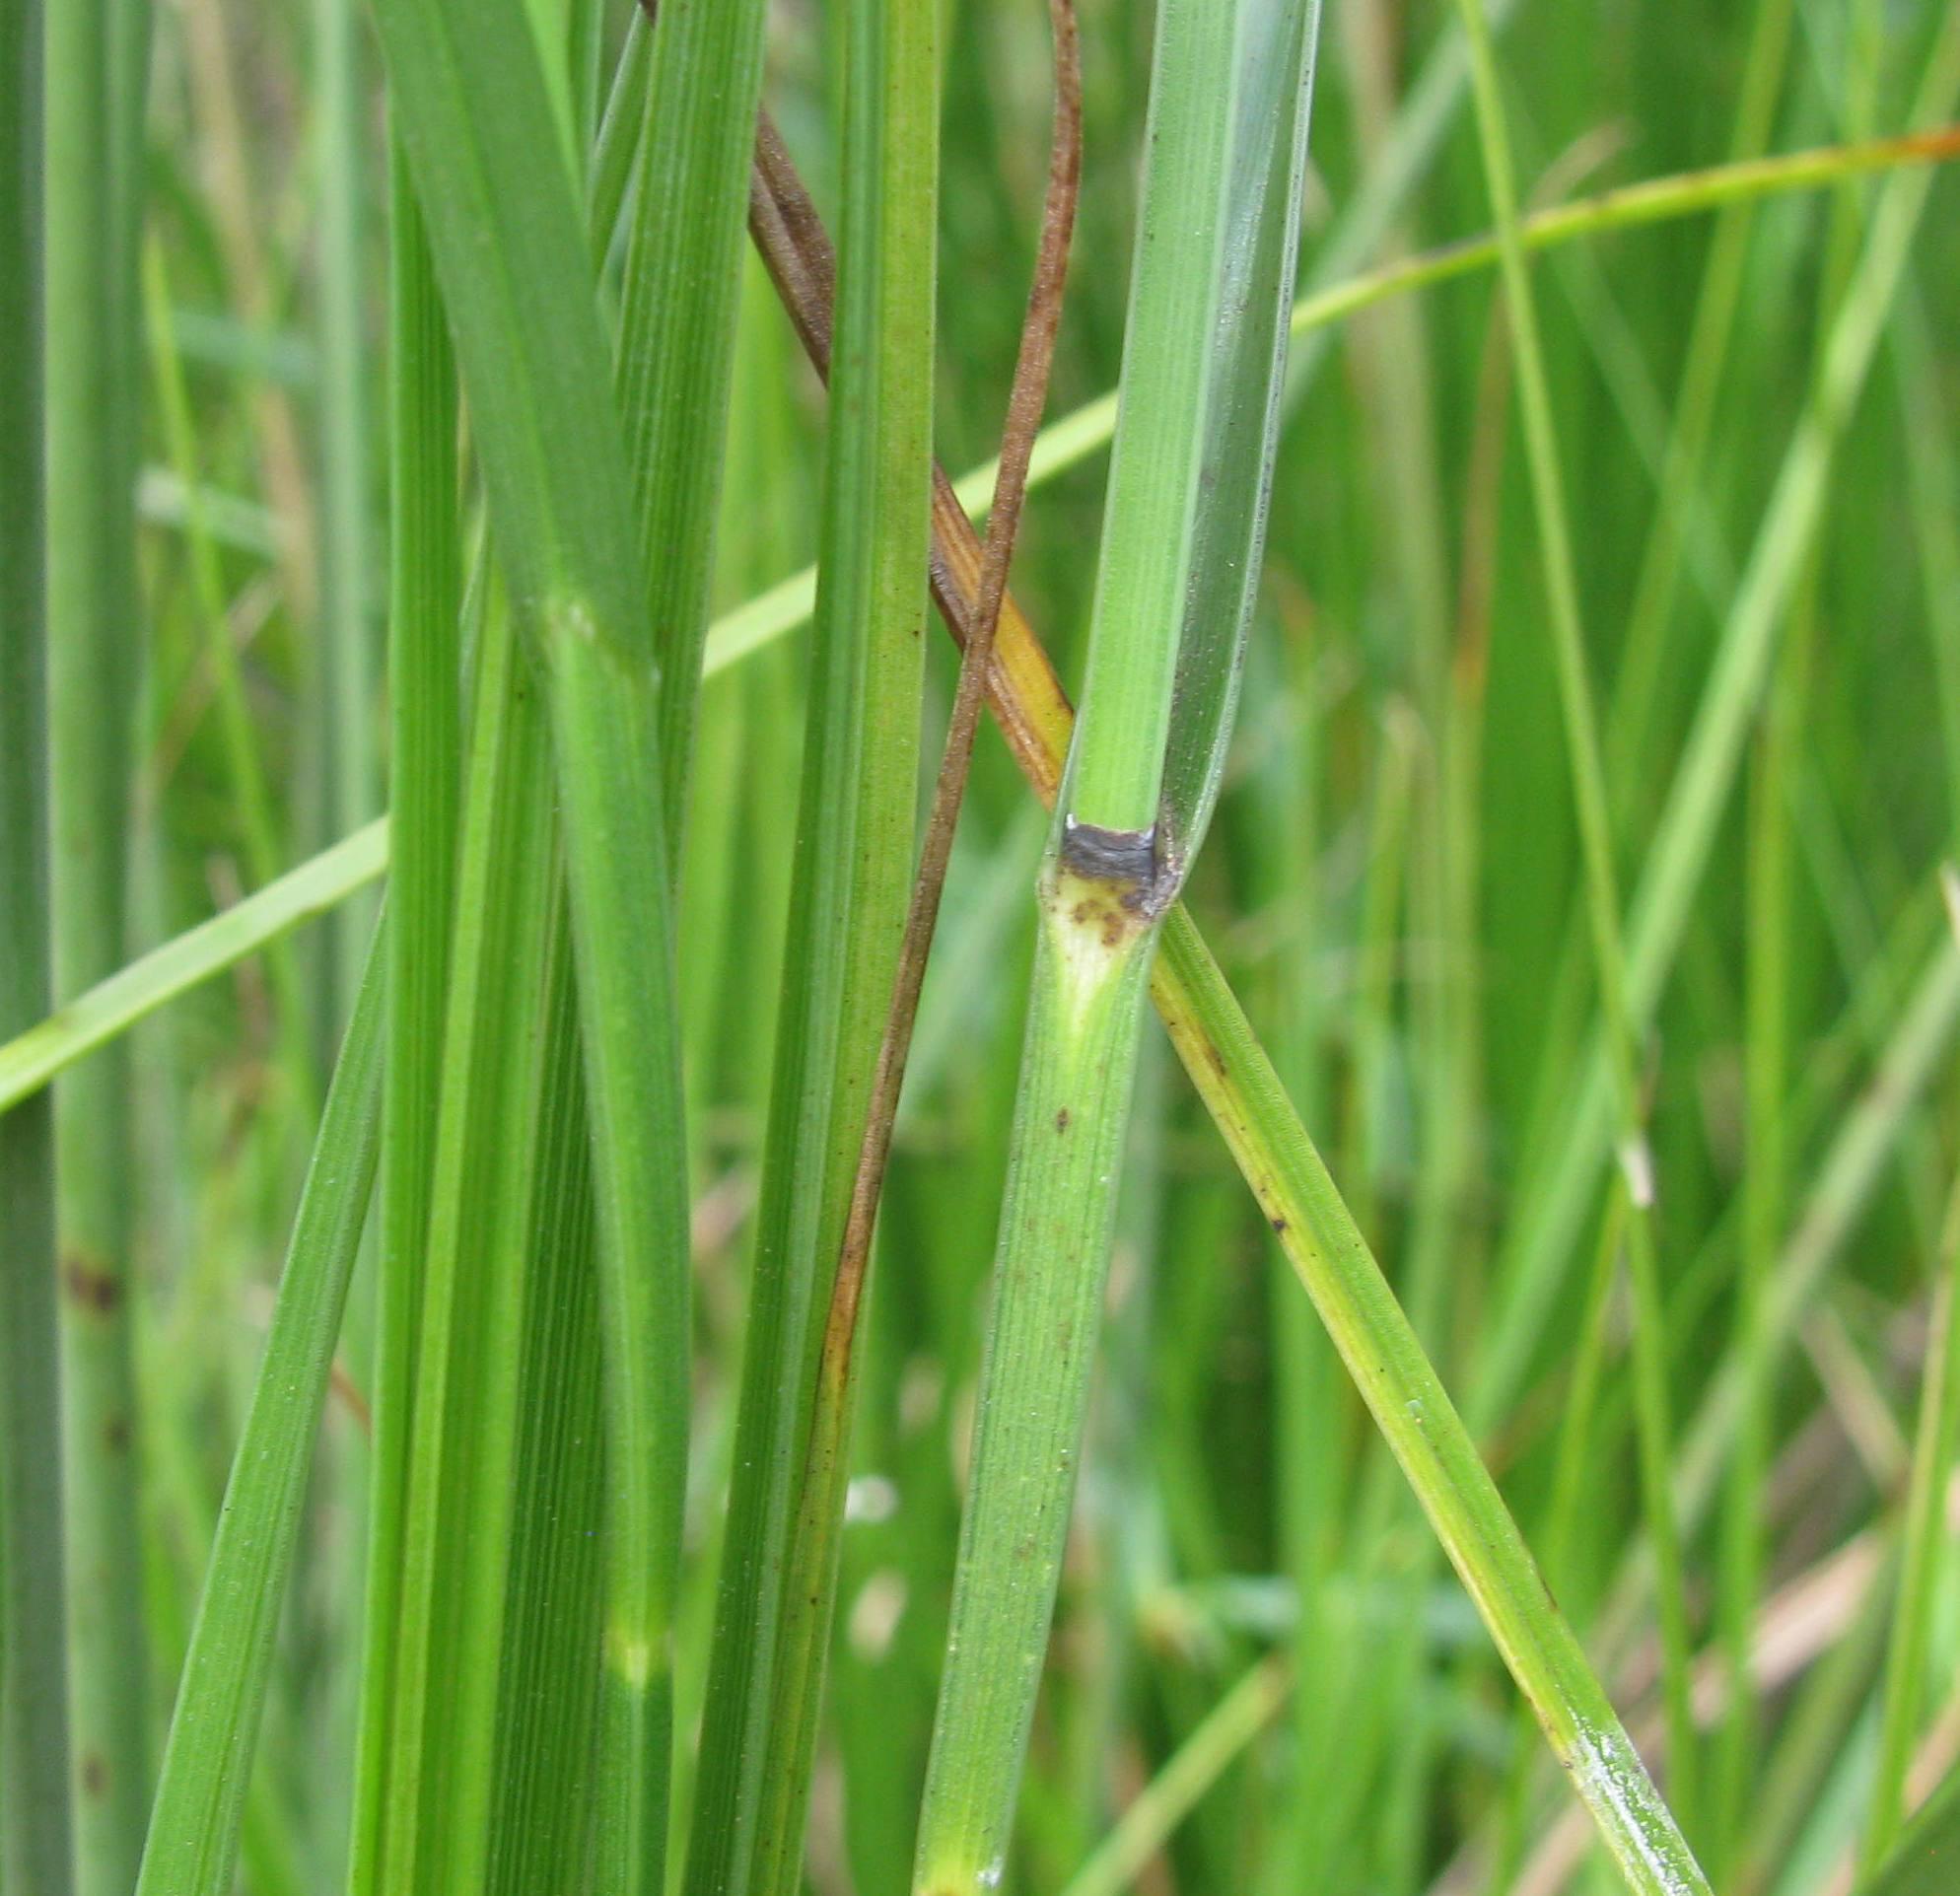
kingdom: Plantae
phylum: Tracheophyta
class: Liliopsida
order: Poales
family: Cyperaceae
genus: Fuirena
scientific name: Fuirena coerulescens
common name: Blue umbrella-sedge
